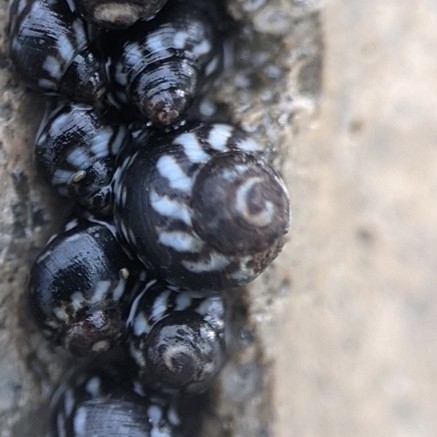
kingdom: Animalia
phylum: Mollusca
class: Gastropoda
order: Littorinimorpha
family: Littorinidae
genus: Echinolittorina
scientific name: Echinolittorina placida
